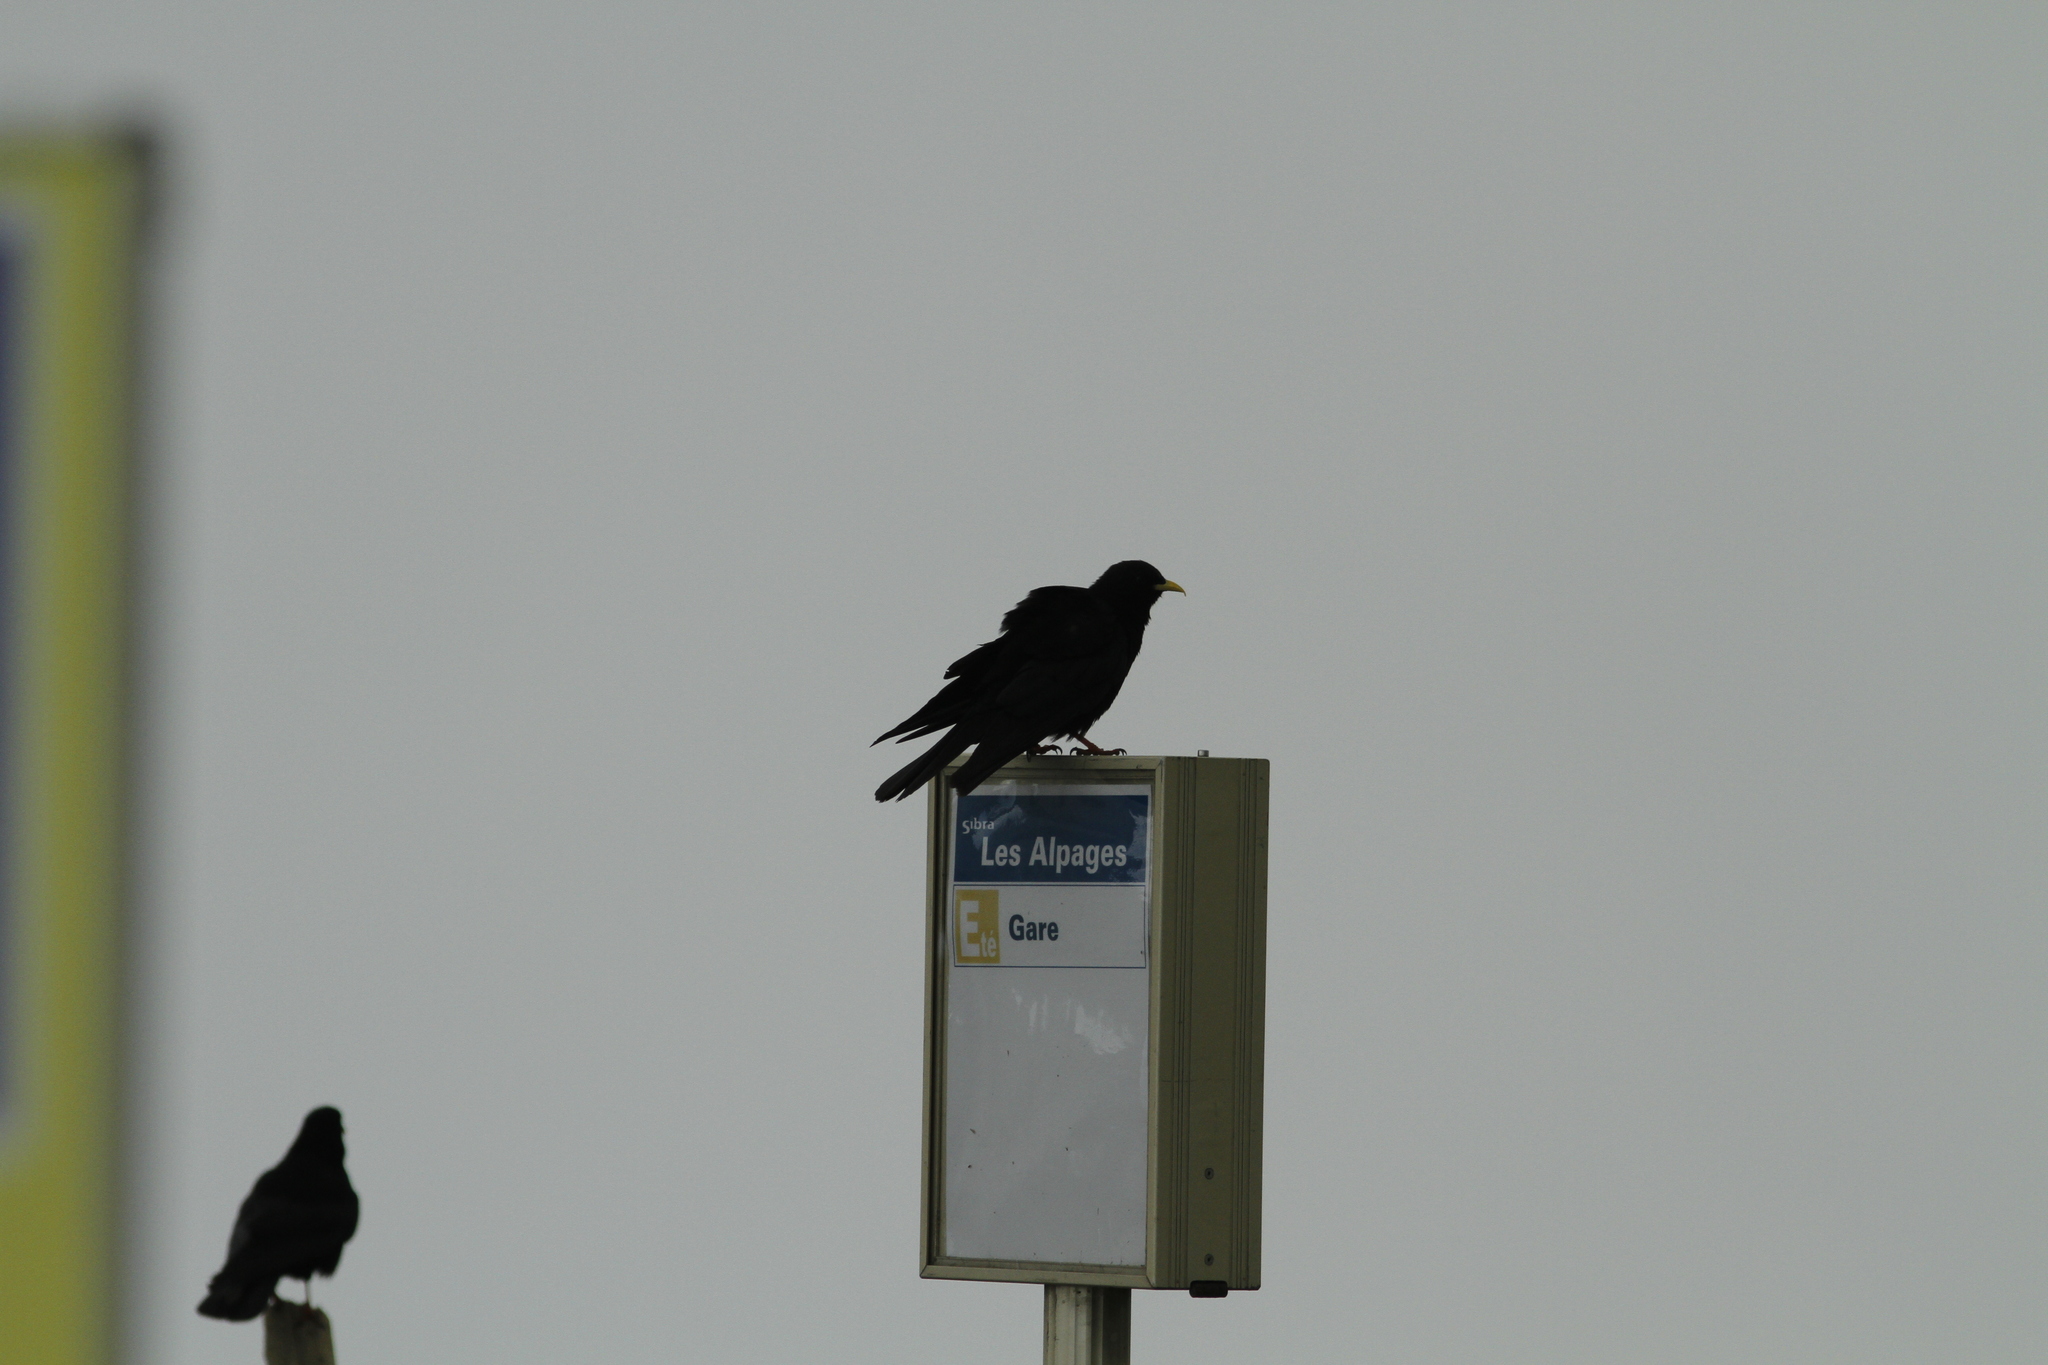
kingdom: Animalia
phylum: Chordata
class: Aves
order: Passeriformes
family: Corvidae
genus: Pyrrhocorax
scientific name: Pyrrhocorax graculus
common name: Alpine chough
